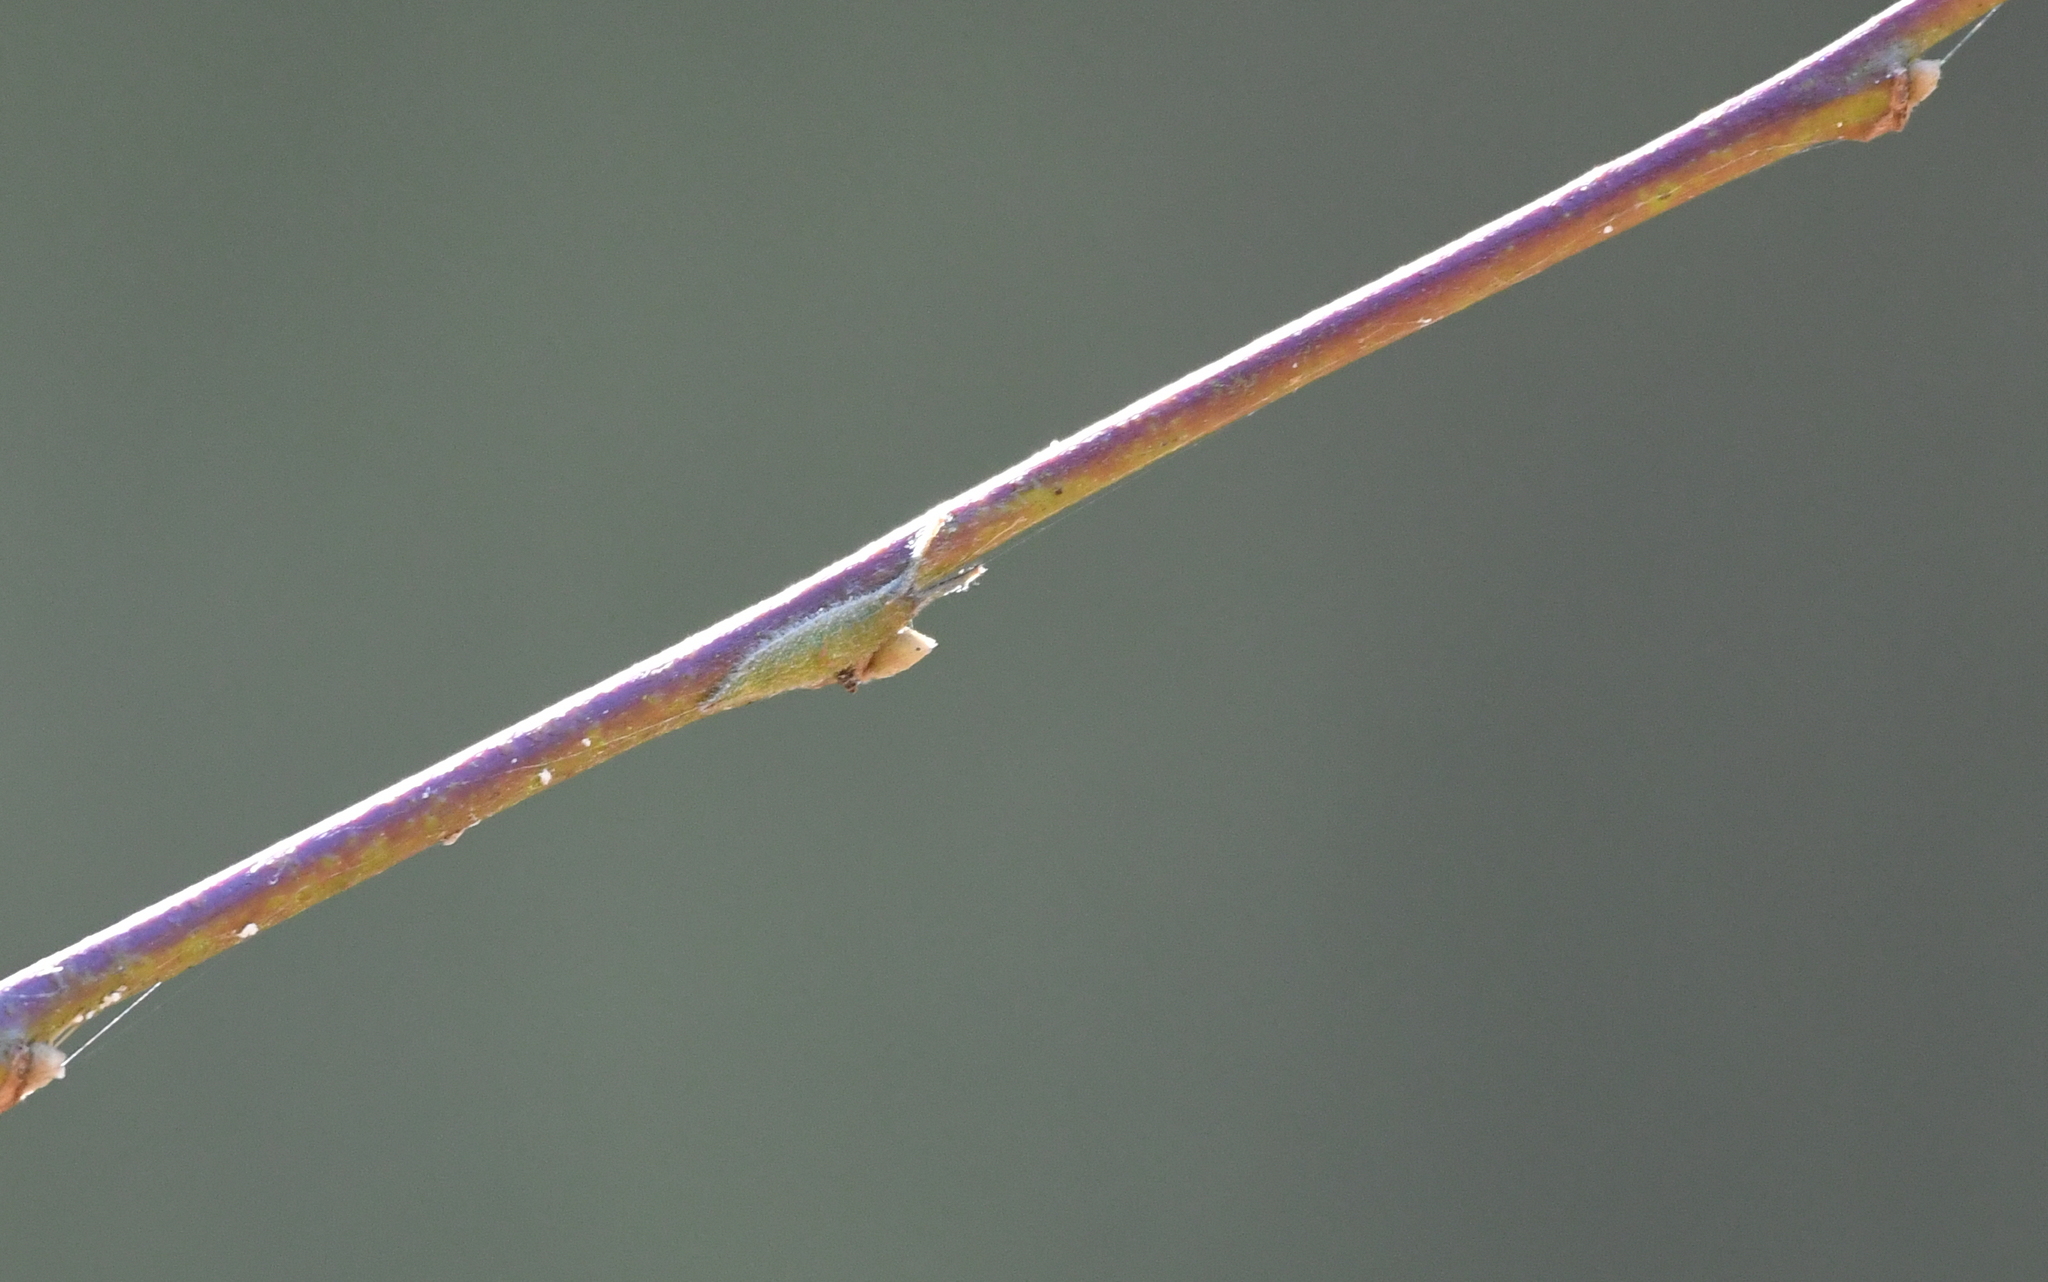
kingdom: Animalia
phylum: Arthropoda
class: Insecta
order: Lepidoptera
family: Nymphalidae
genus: Apatura
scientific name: Apatura ilia
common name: Lesser purple emperor
